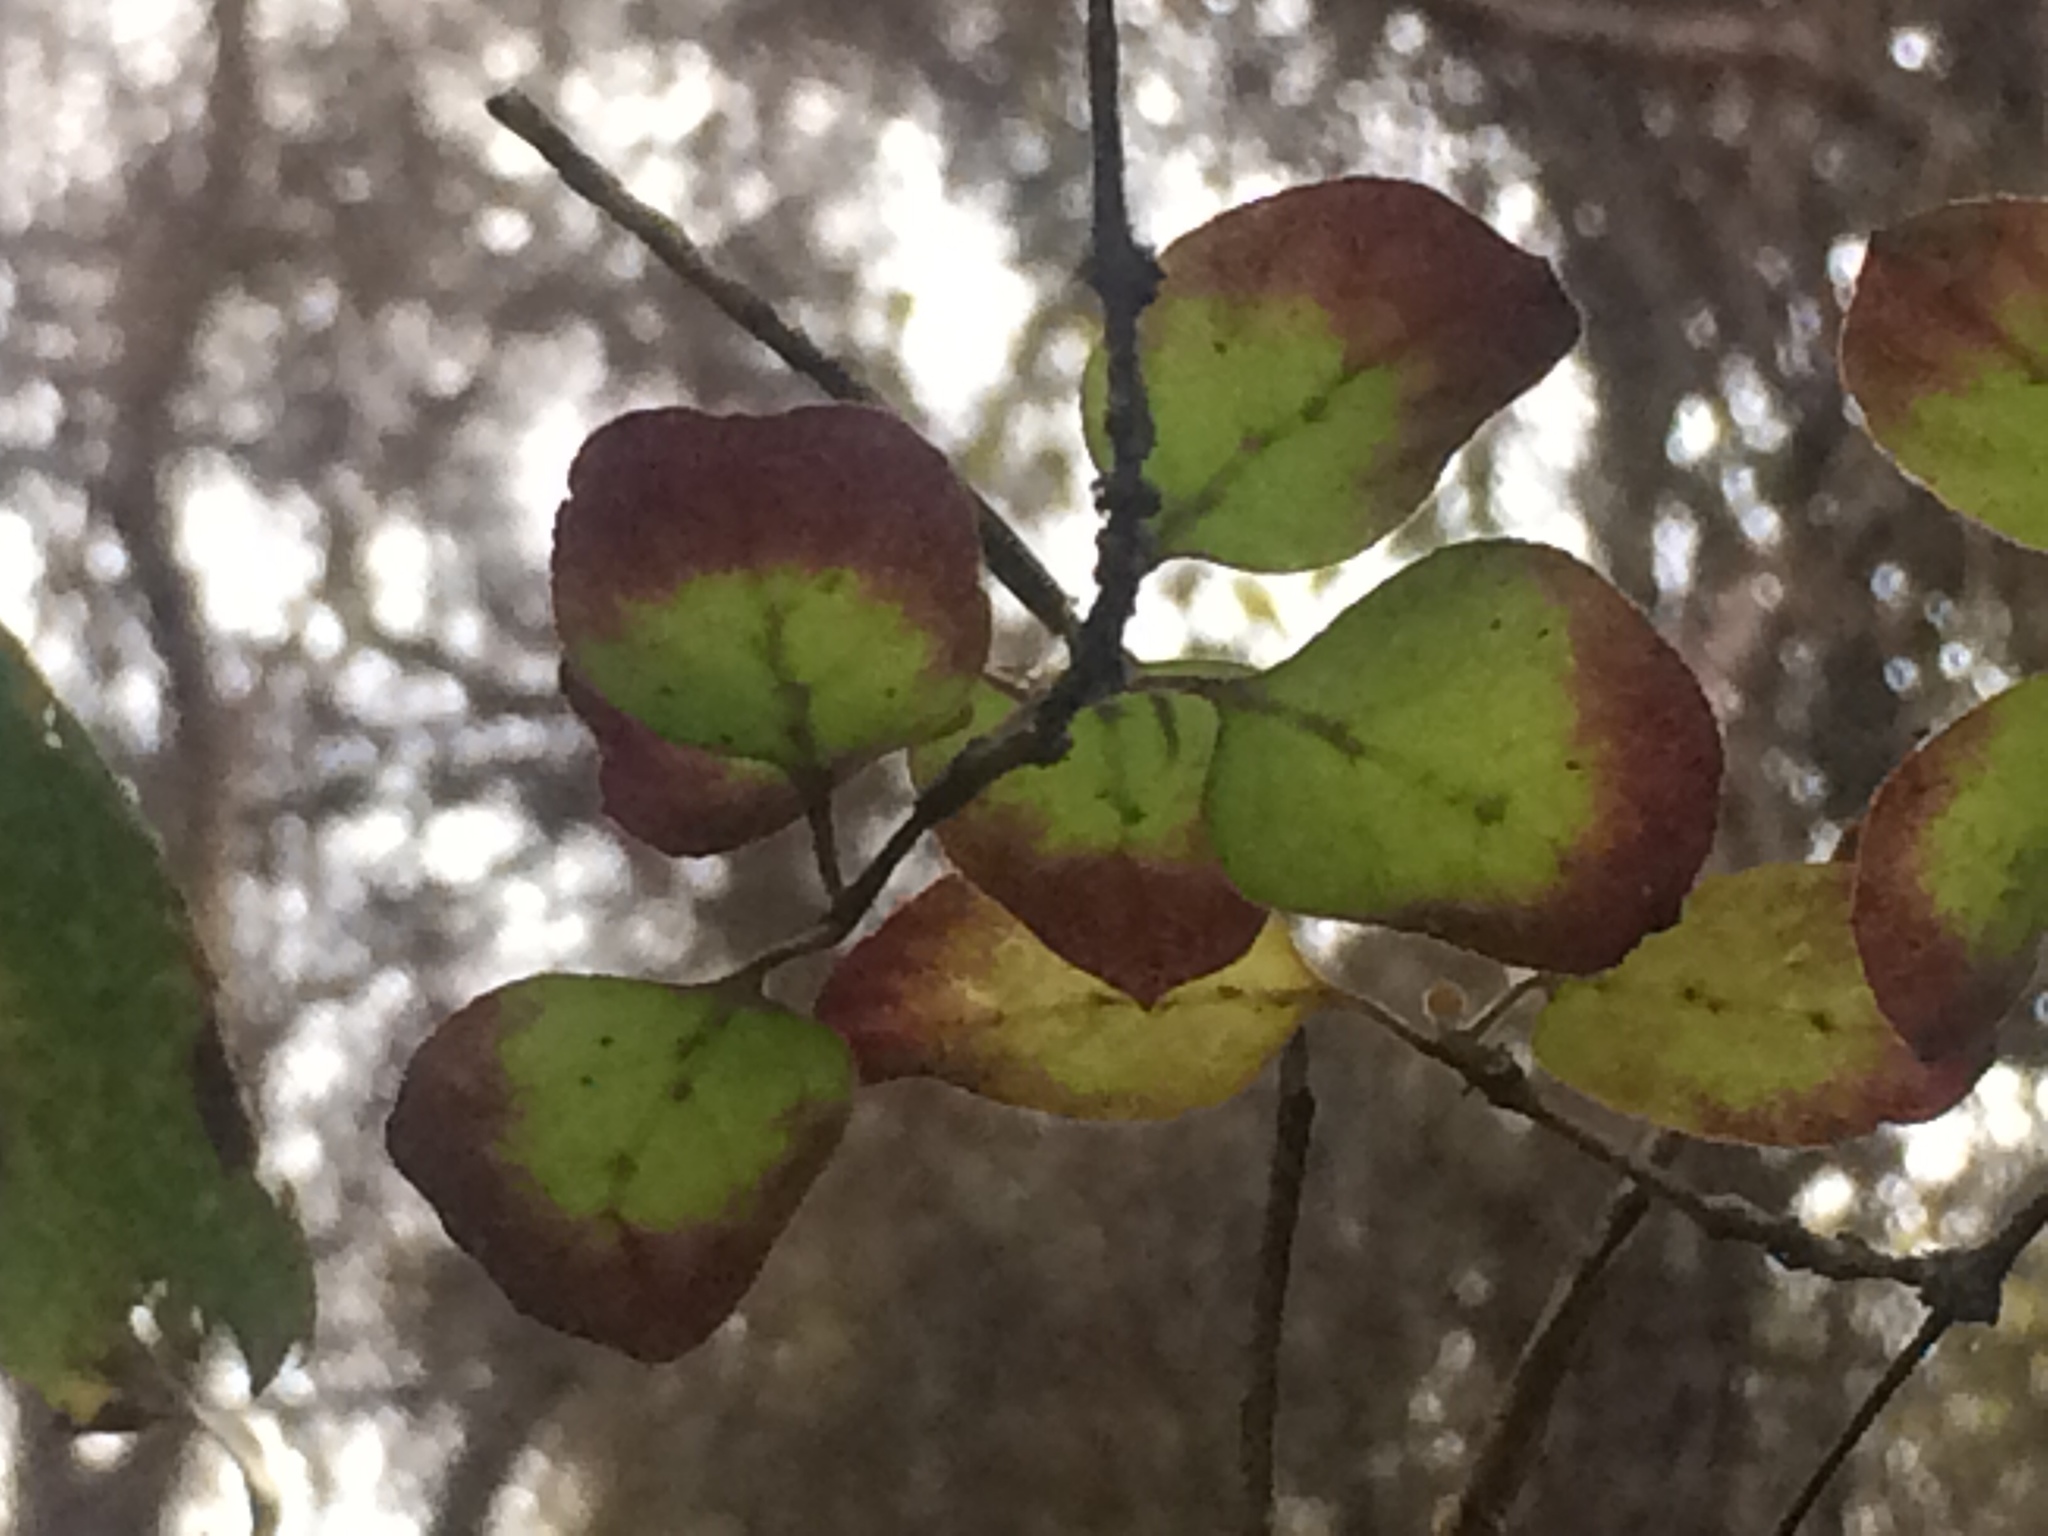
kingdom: Plantae
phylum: Tracheophyta
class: Magnoliopsida
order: Gentianales
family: Rubiaceae
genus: Coprosma
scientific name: Coprosma rotundifolia
